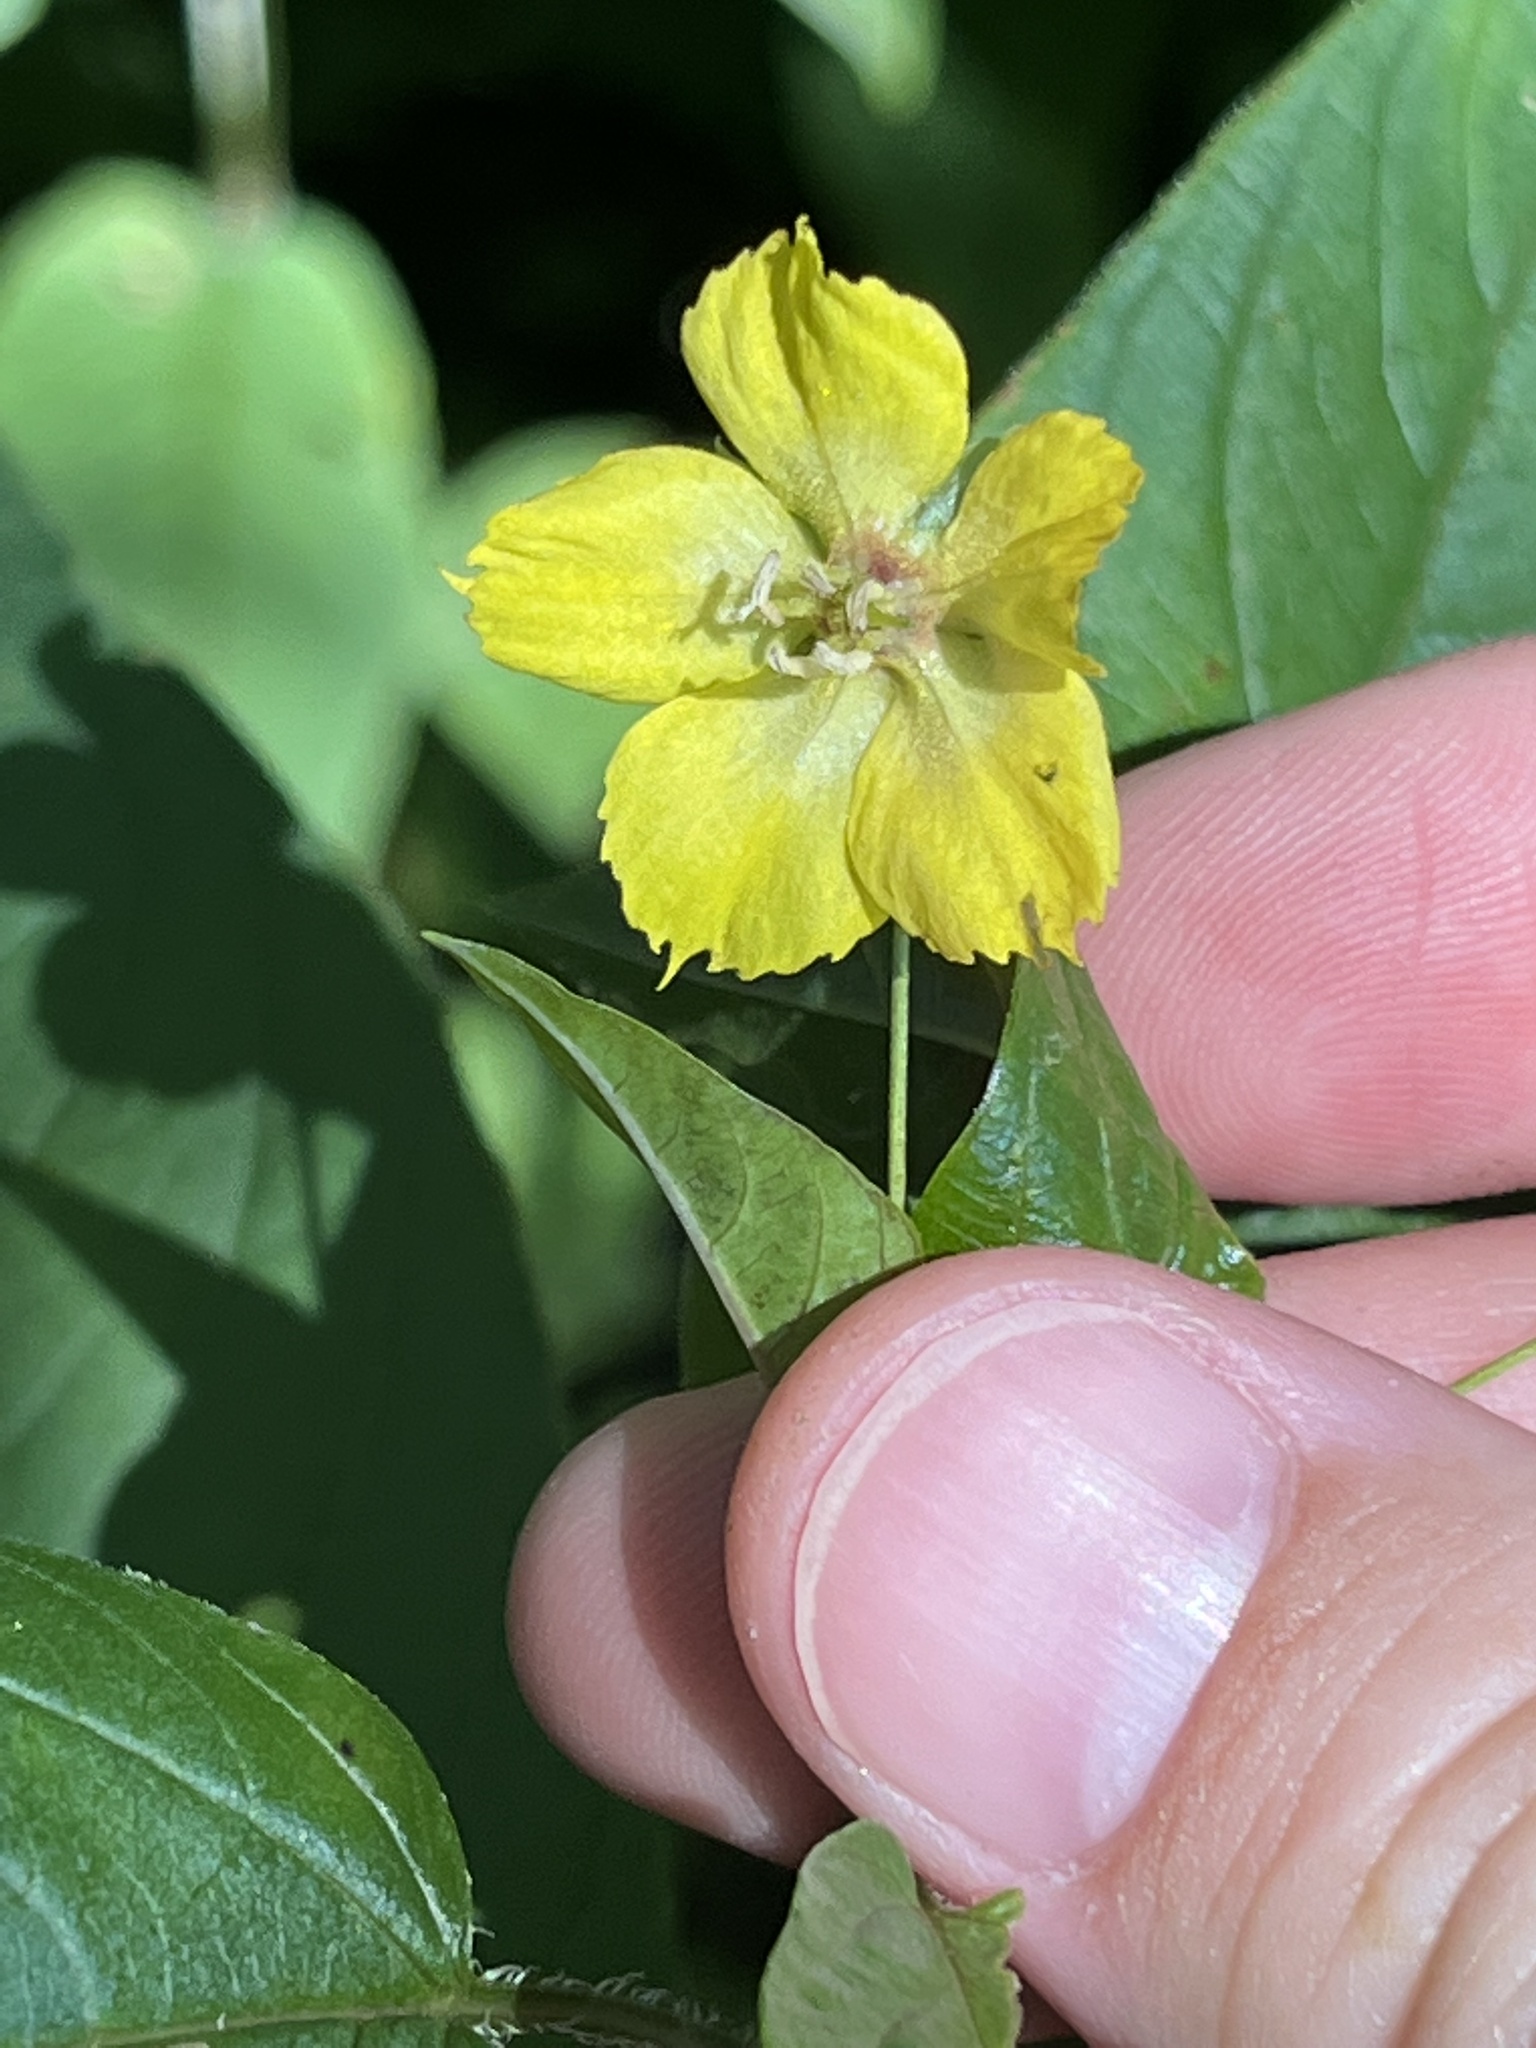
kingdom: Plantae
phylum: Tracheophyta
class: Magnoliopsida
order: Ericales
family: Primulaceae
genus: Lysimachia
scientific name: Lysimachia ciliata
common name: Fringed loosestrife
